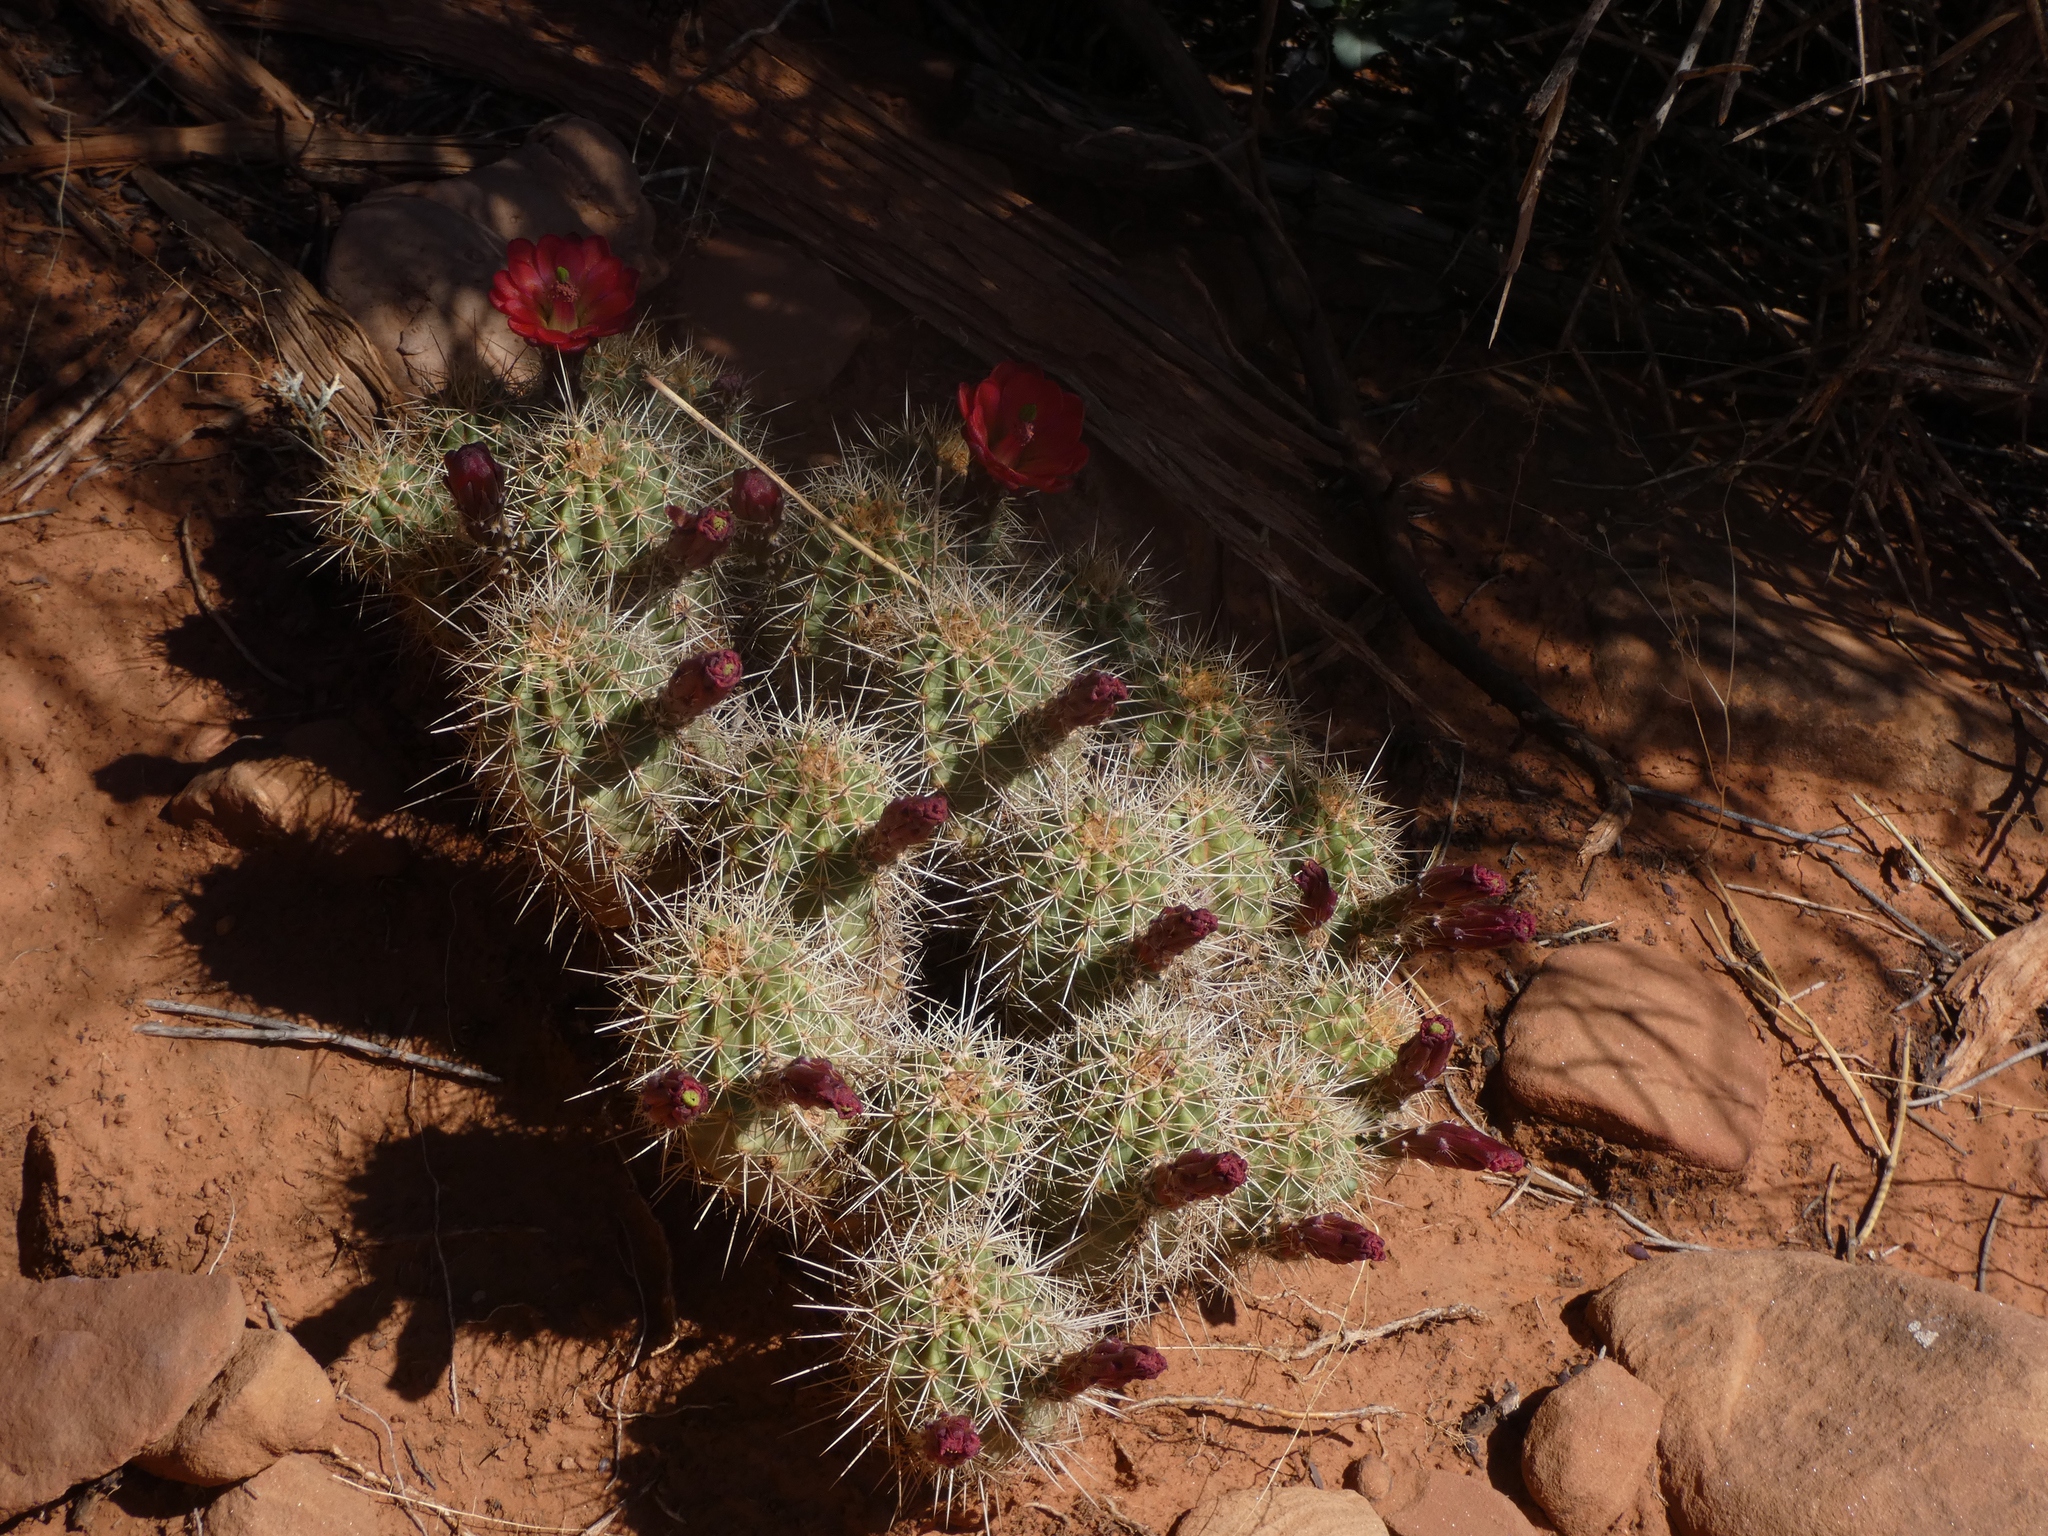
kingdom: Plantae
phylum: Tracheophyta
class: Magnoliopsida
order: Caryophyllales
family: Cactaceae
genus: Echinocereus
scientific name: Echinocereus bakeri
